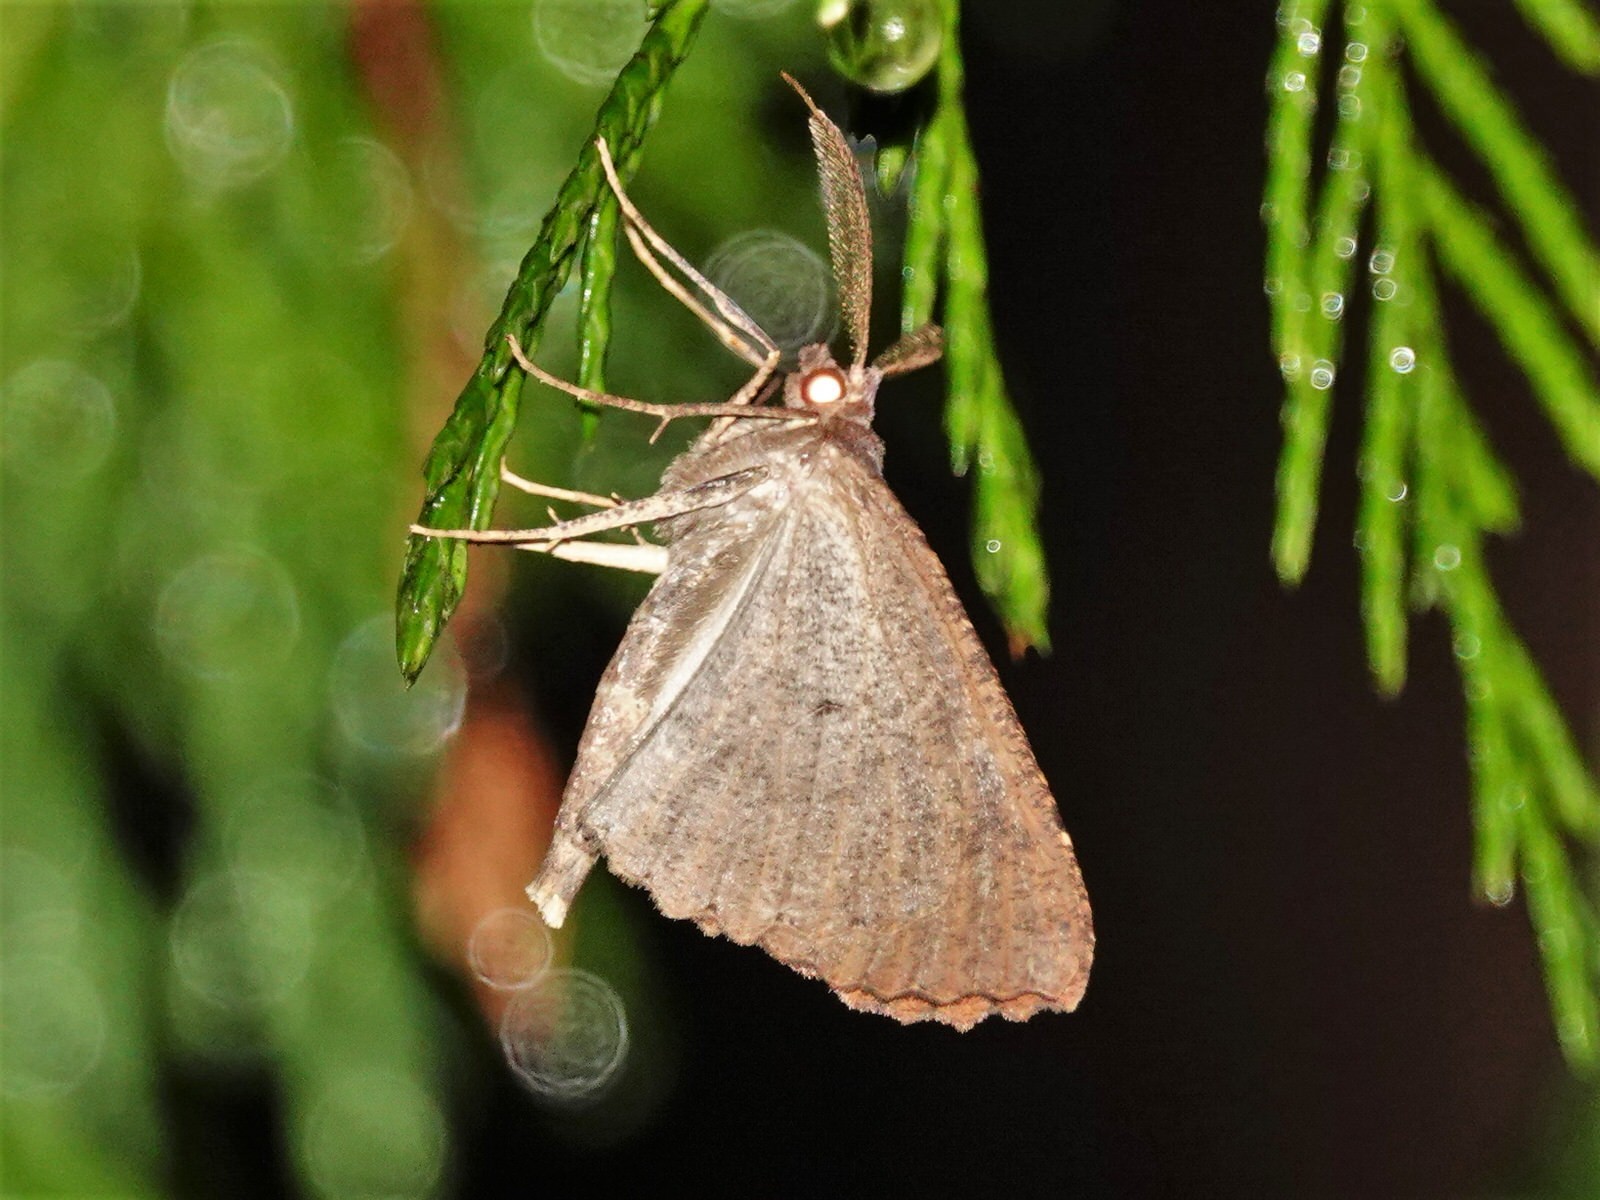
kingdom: Animalia
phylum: Arthropoda
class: Insecta
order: Lepidoptera
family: Geometridae
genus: Cleora
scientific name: Cleora scriptaria
